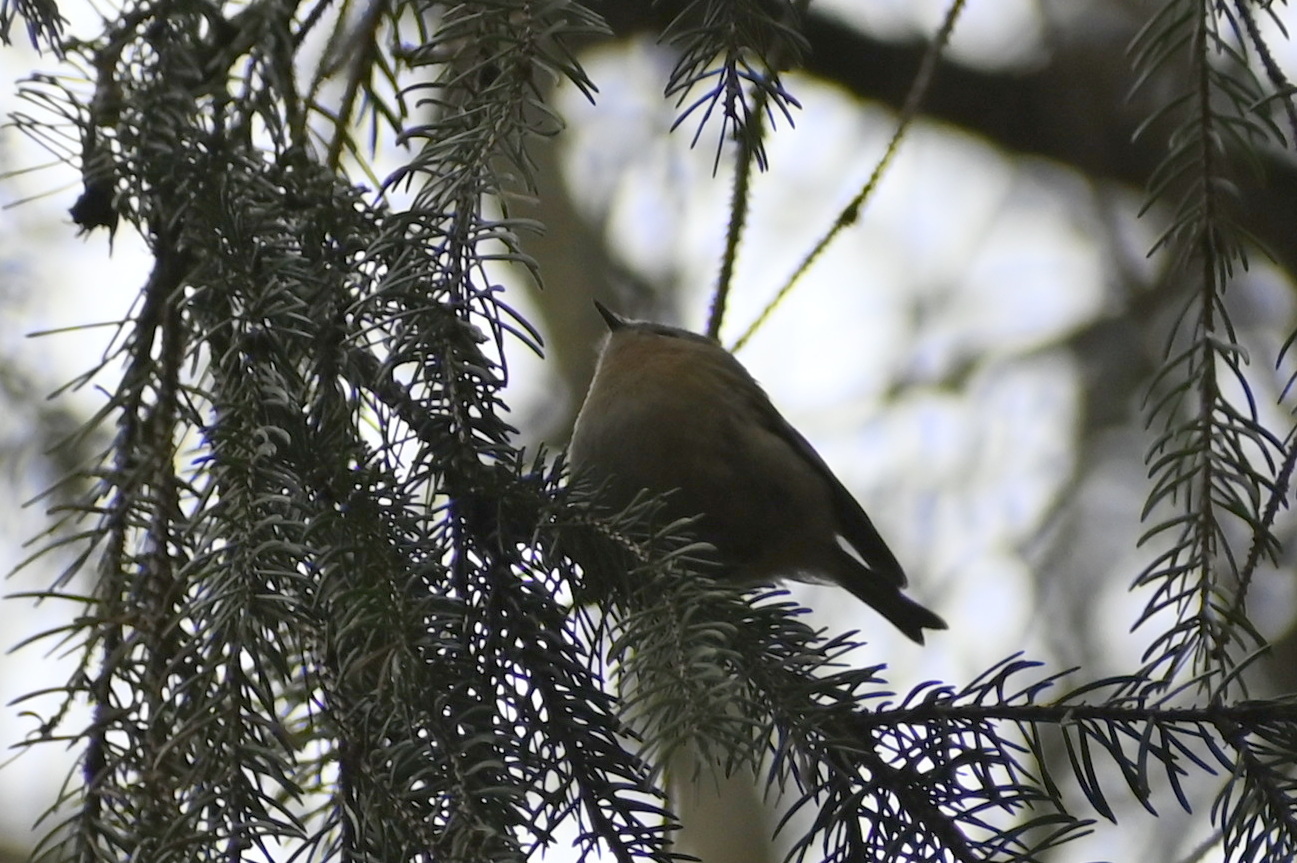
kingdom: Animalia
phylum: Chordata
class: Aves
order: Passeriformes
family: Regulidae
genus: Regulus
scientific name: Regulus regulus
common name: Goldcrest
